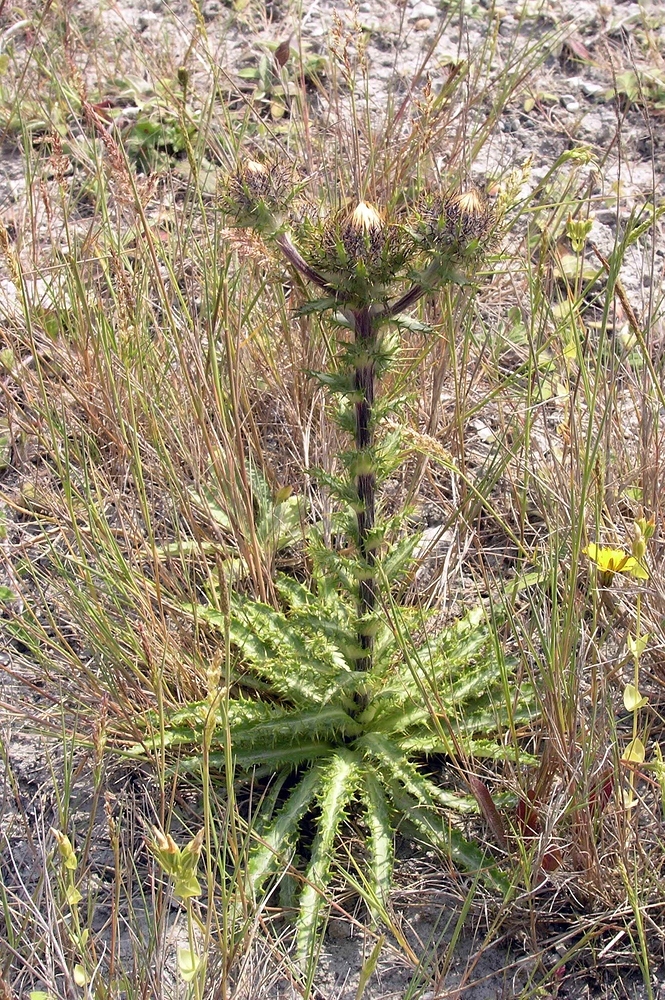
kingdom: Plantae
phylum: Tracheophyta
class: Magnoliopsida
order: Asterales
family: Asteraceae
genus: Carlina
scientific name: Carlina vulgaris
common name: Carline thistle
